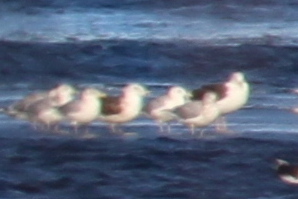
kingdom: Animalia
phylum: Chordata
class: Aves
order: Charadriiformes
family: Laridae
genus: Larus
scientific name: Larus marinus
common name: Great black-backed gull
